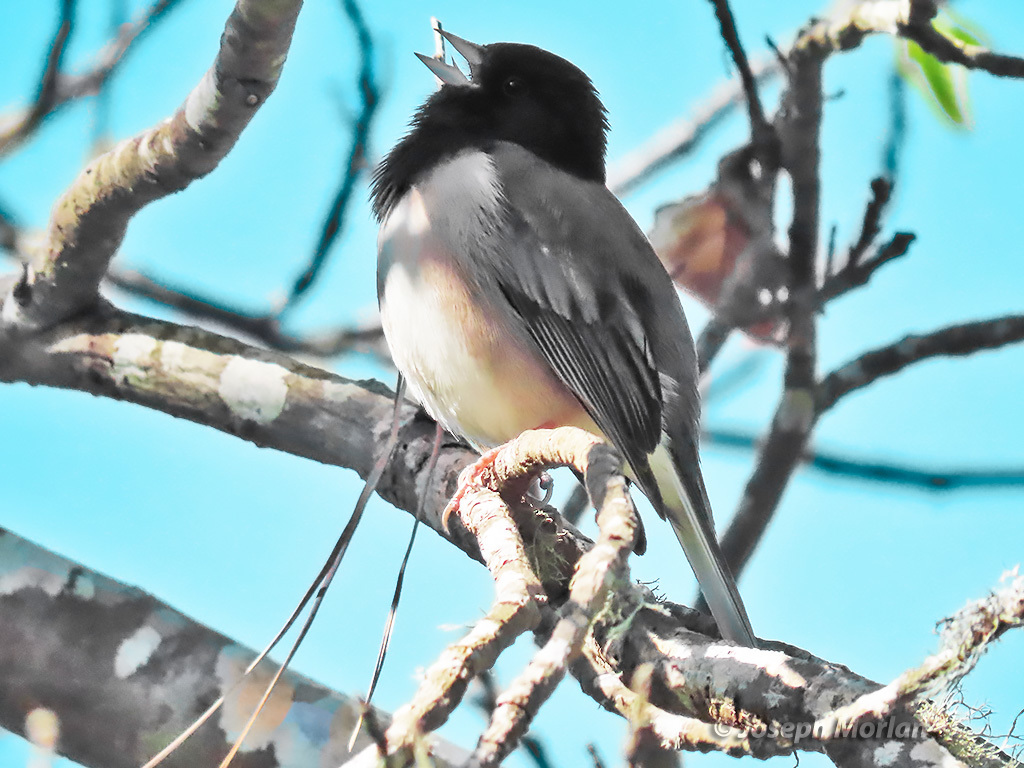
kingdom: Animalia
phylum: Chordata
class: Aves
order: Passeriformes
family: Passerellidae
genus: Junco
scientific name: Junco hyemalis
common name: Dark-eyed junco
